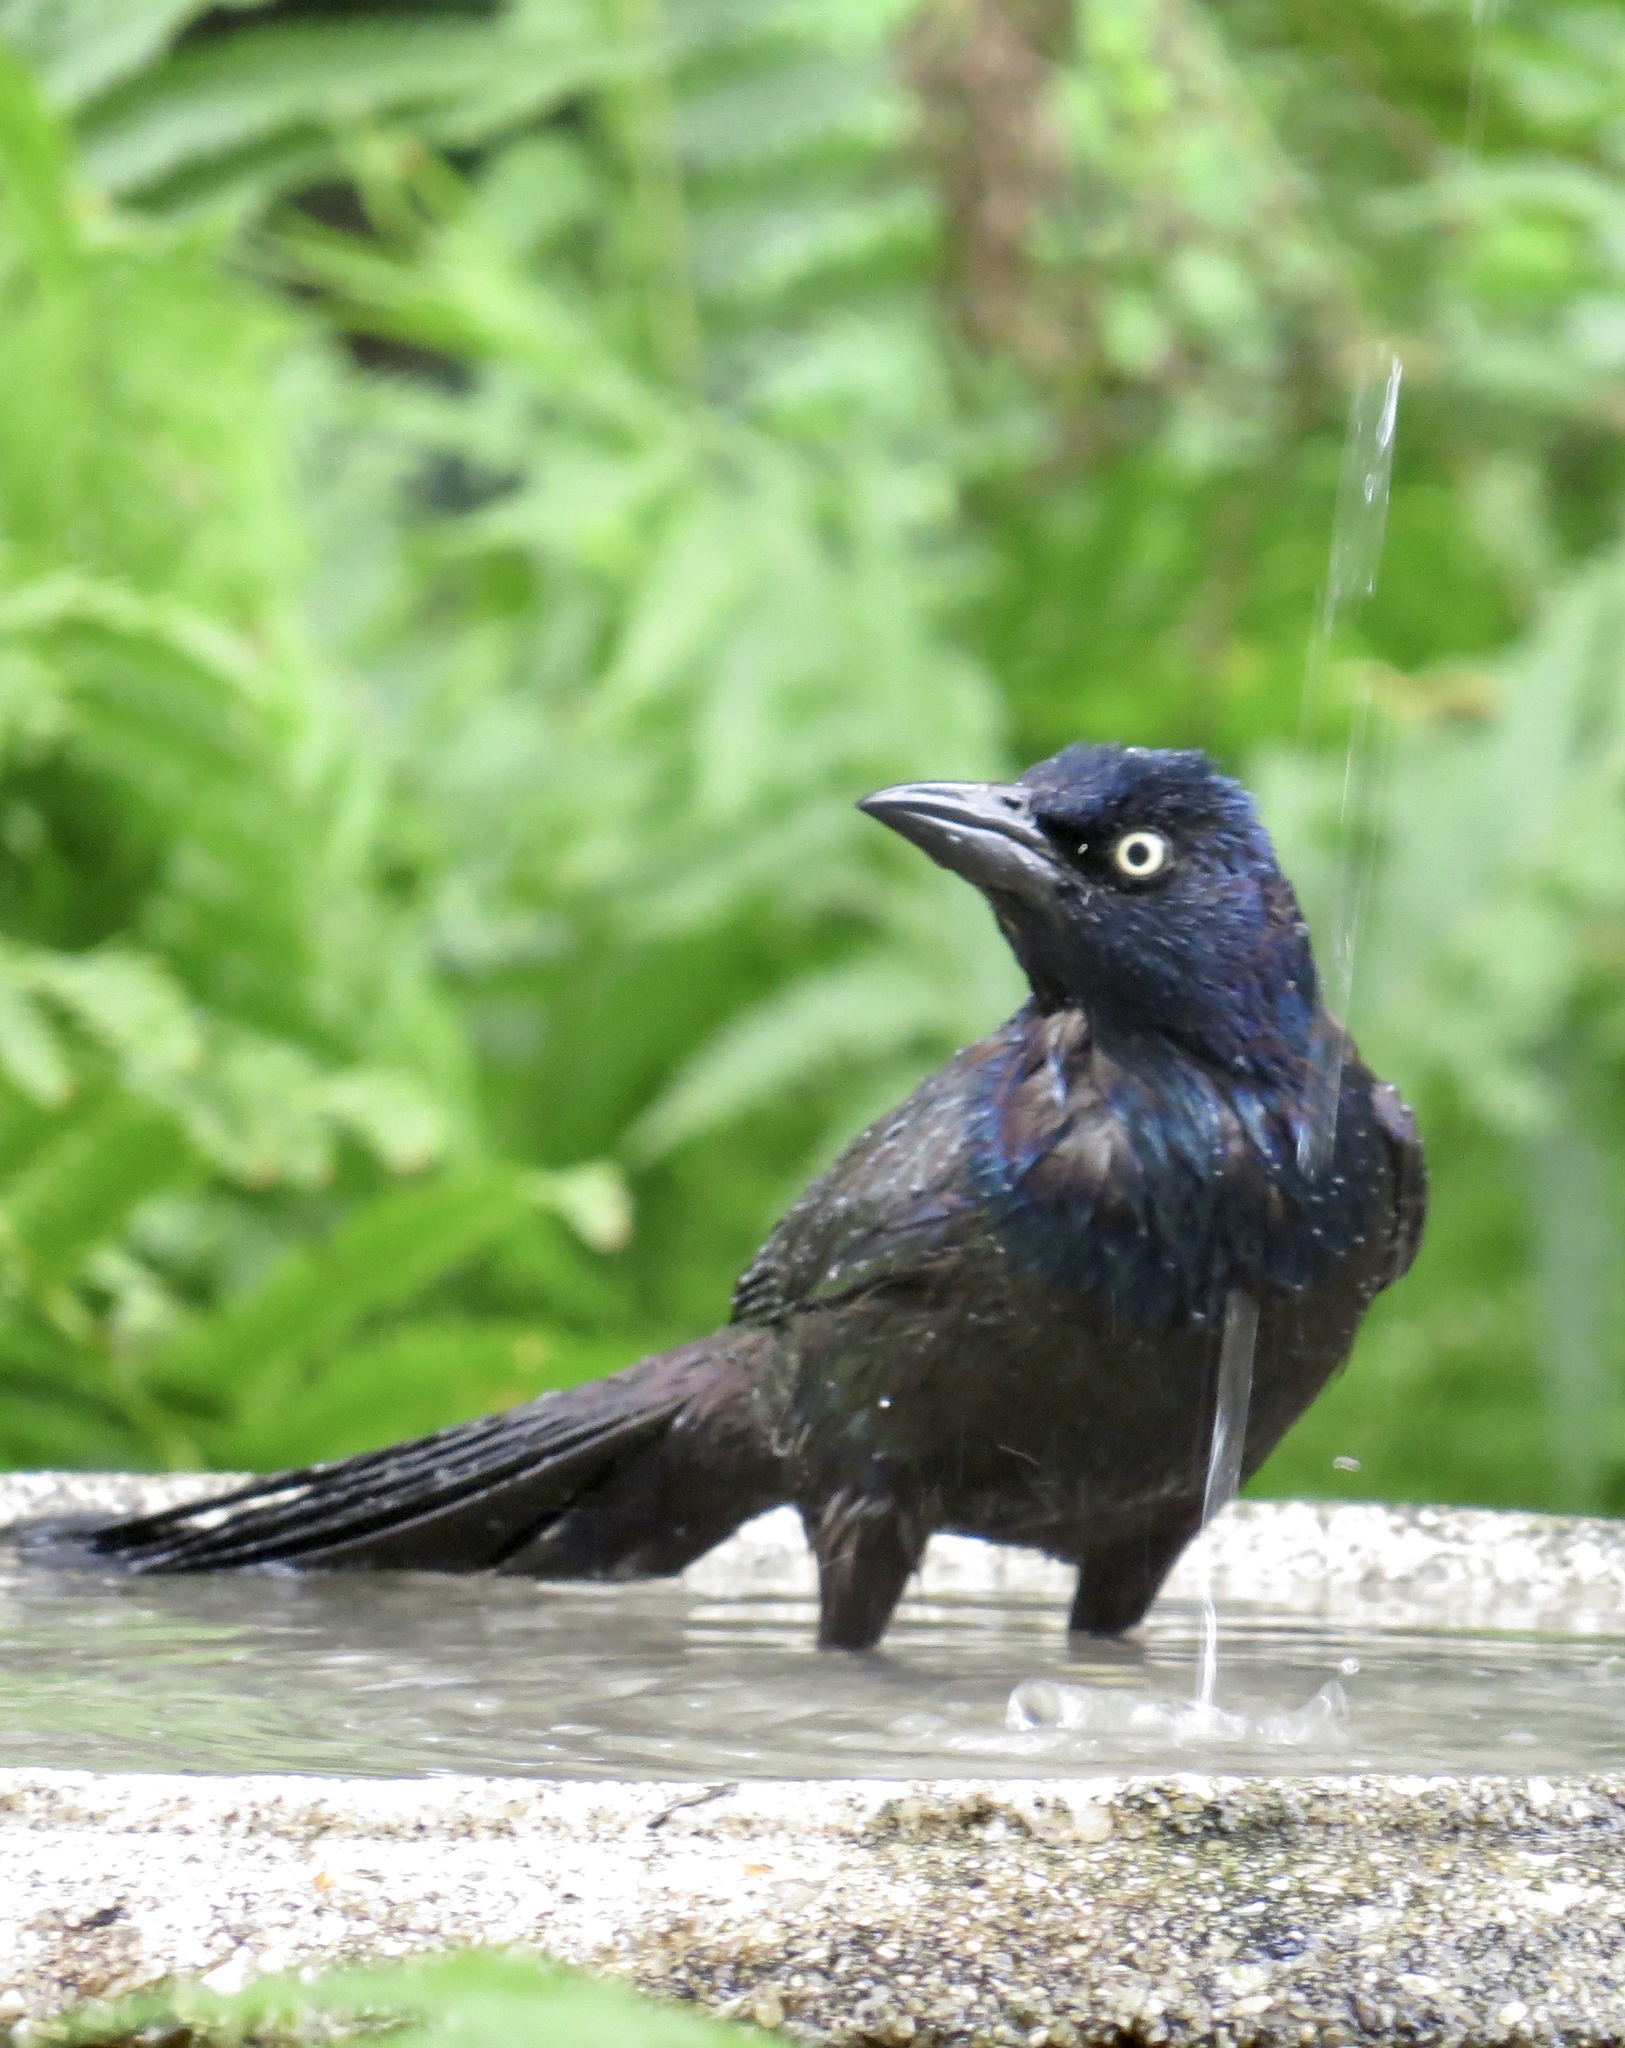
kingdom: Animalia
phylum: Chordata
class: Aves
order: Passeriformes
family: Icteridae
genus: Quiscalus
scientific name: Quiscalus quiscula
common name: Common grackle
